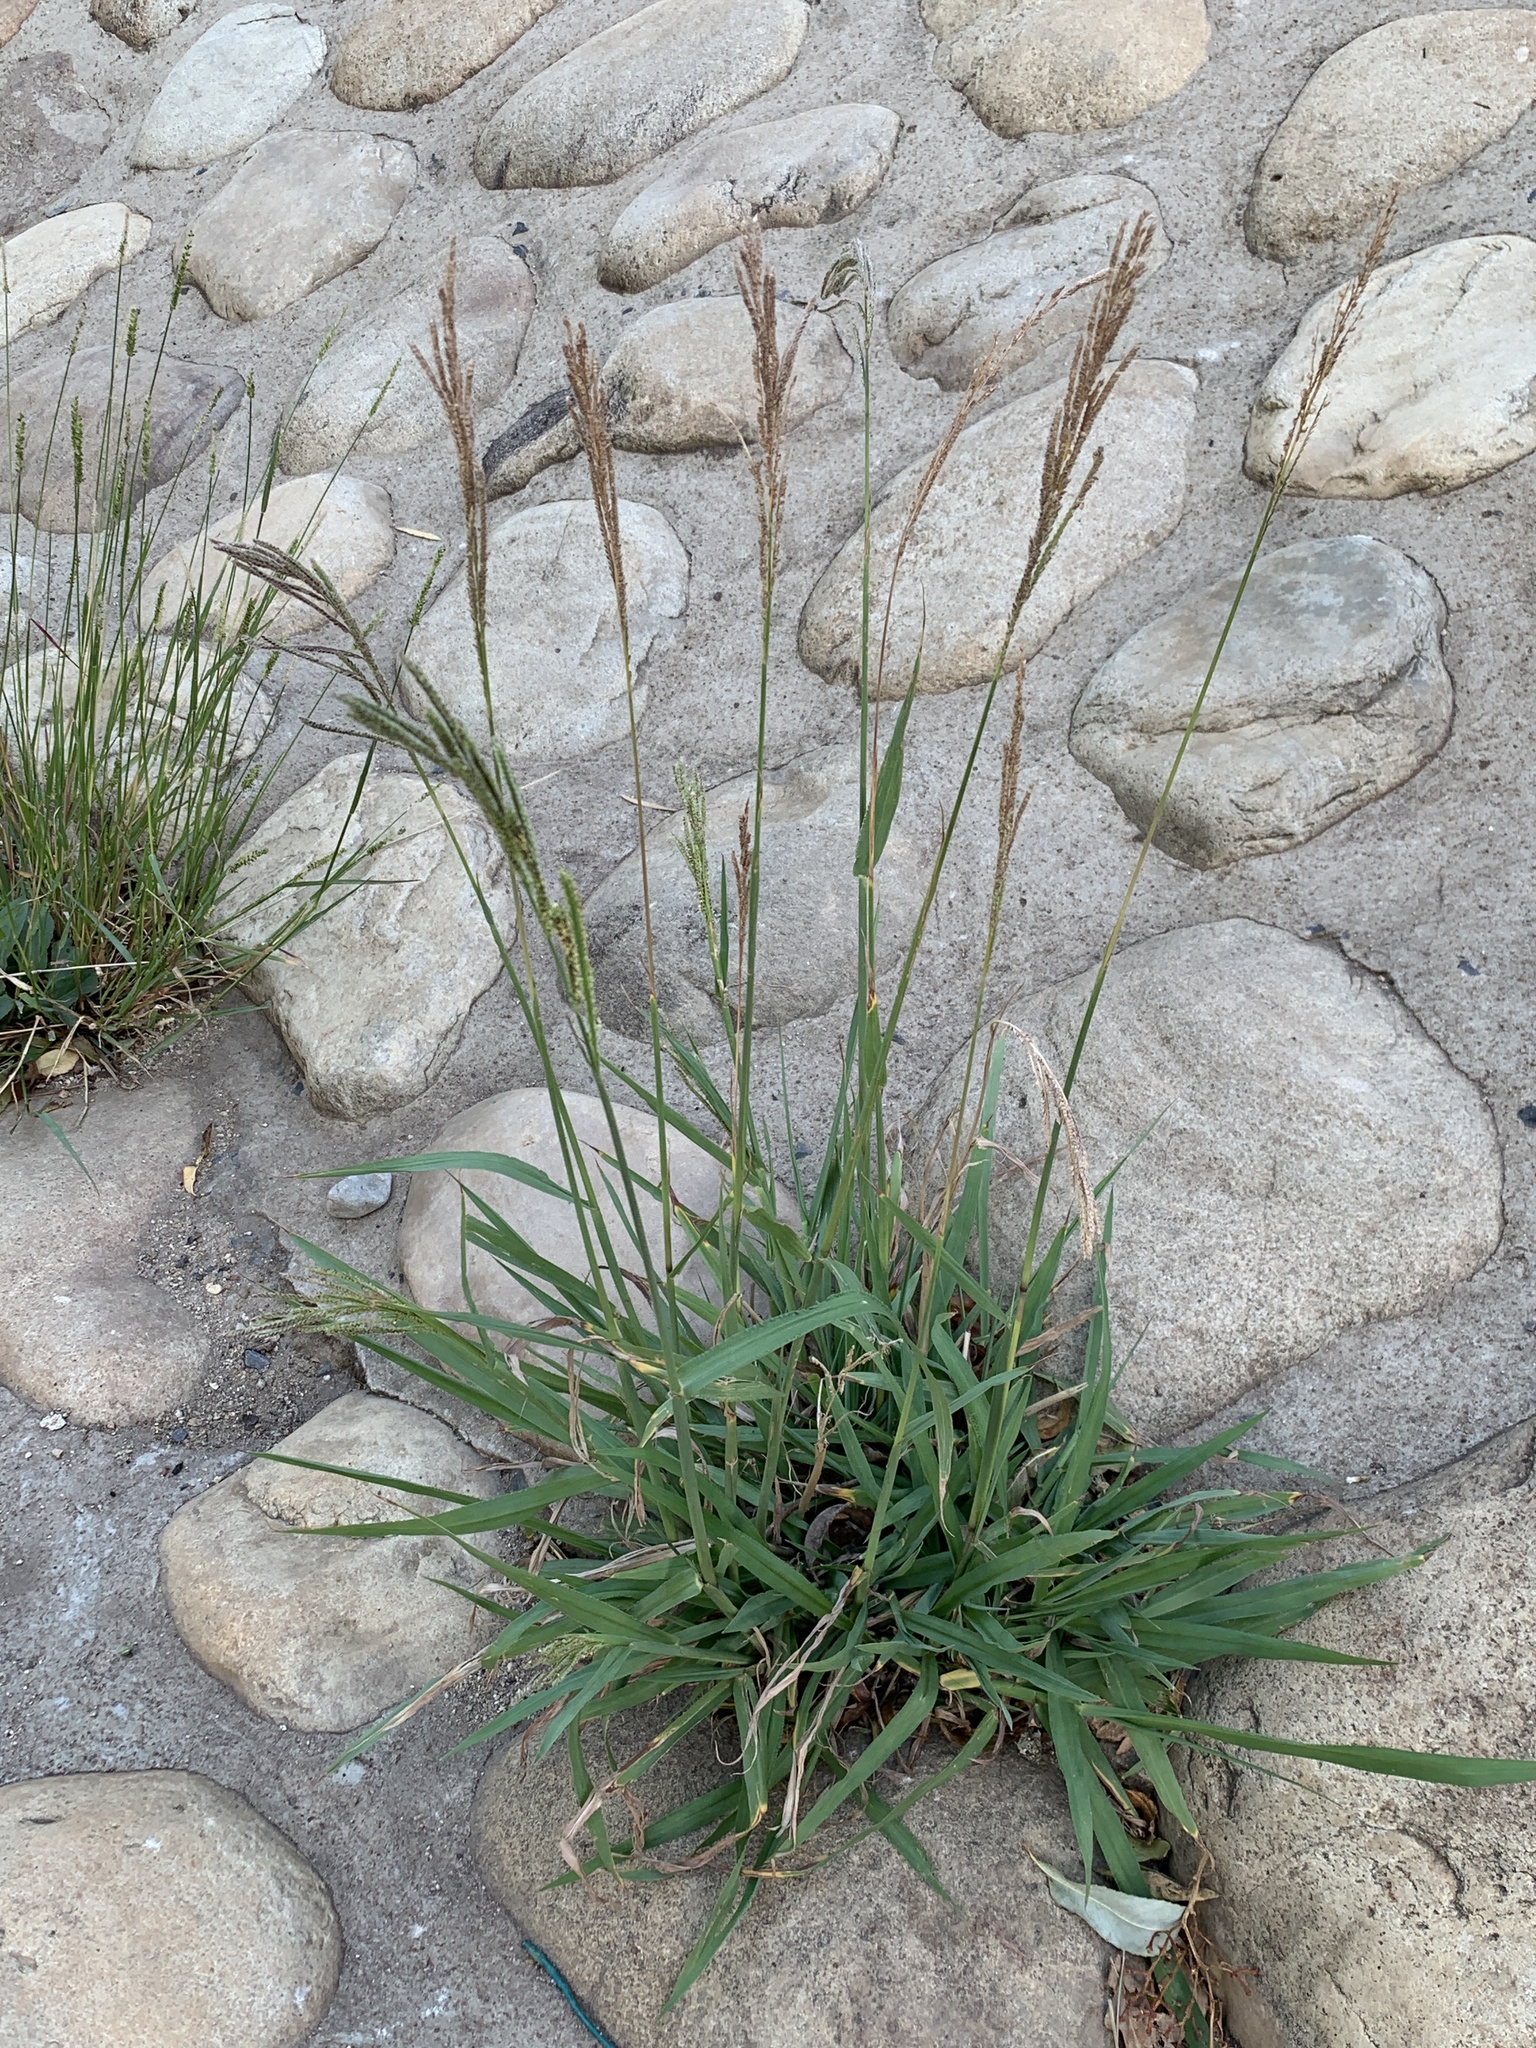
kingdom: Plantae
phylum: Tracheophyta
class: Liliopsida
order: Poales
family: Poaceae
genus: Paspalum
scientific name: Paspalum urvillei
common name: Vasey's grass
